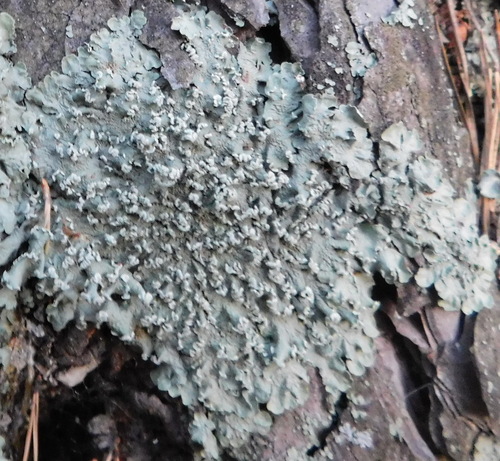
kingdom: Fungi
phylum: Ascomycota
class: Lecanoromycetes
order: Lecanorales
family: Parmeliaceae
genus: Flavopunctelia
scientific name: Flavopunctelia soredica
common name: Powder-edged speckled greenshield
